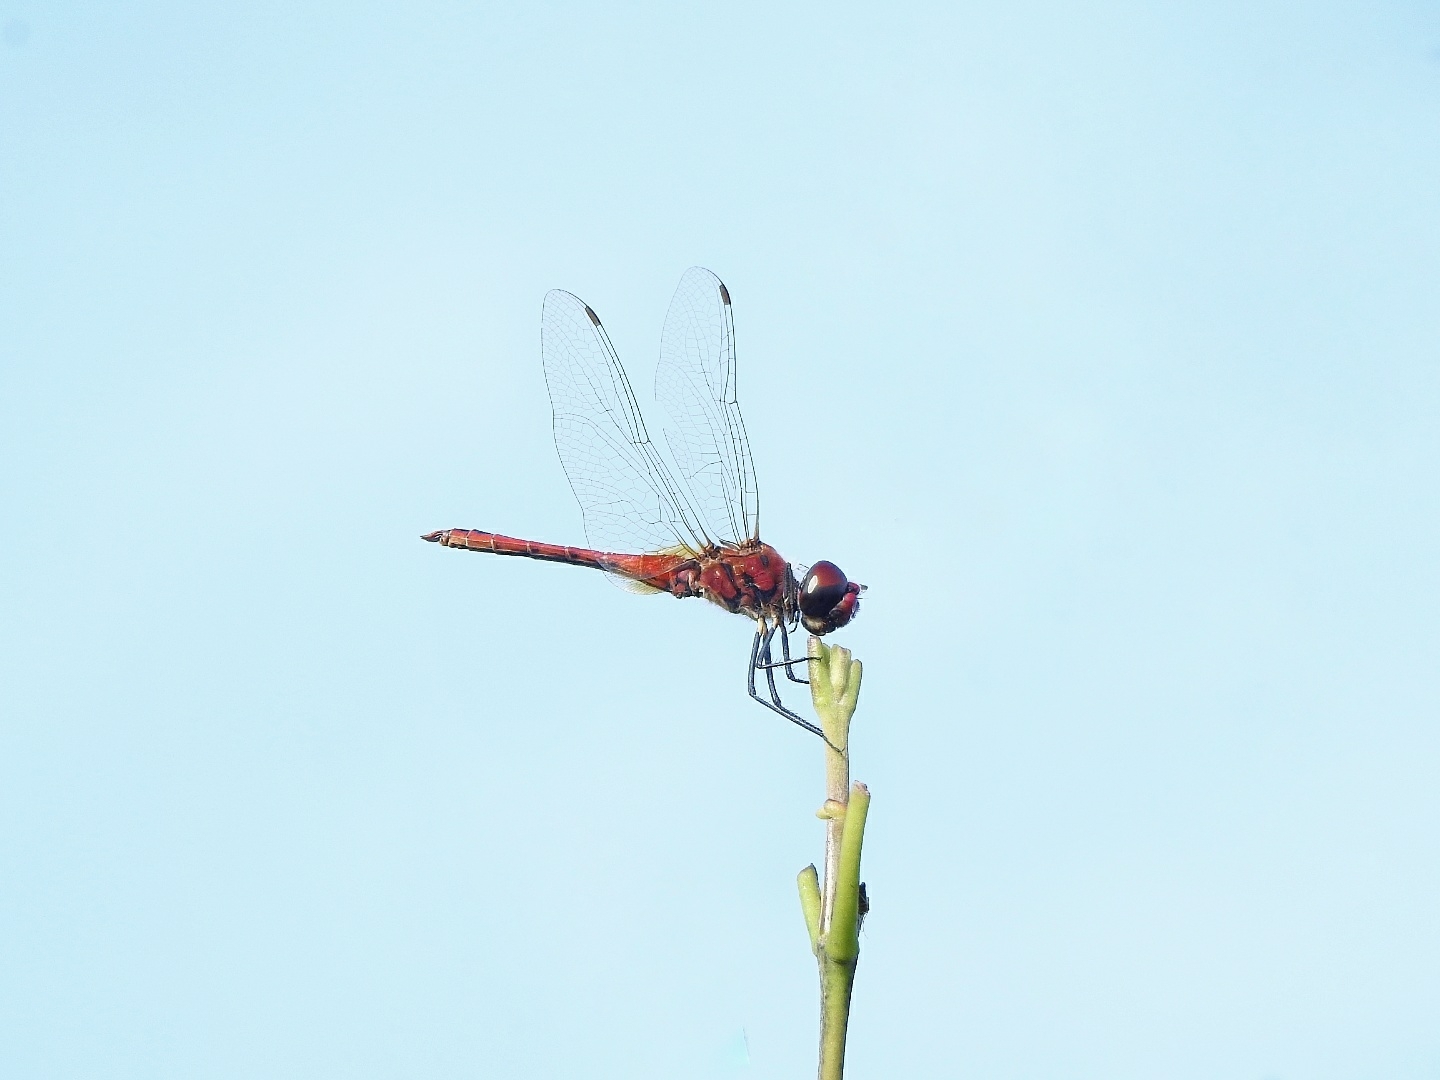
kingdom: Animalia
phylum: Arthropoda
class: Insecta
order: Odonata
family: Libellulidae
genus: Macrodiplax
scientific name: Macrodiplax cora
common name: Coastal glider
